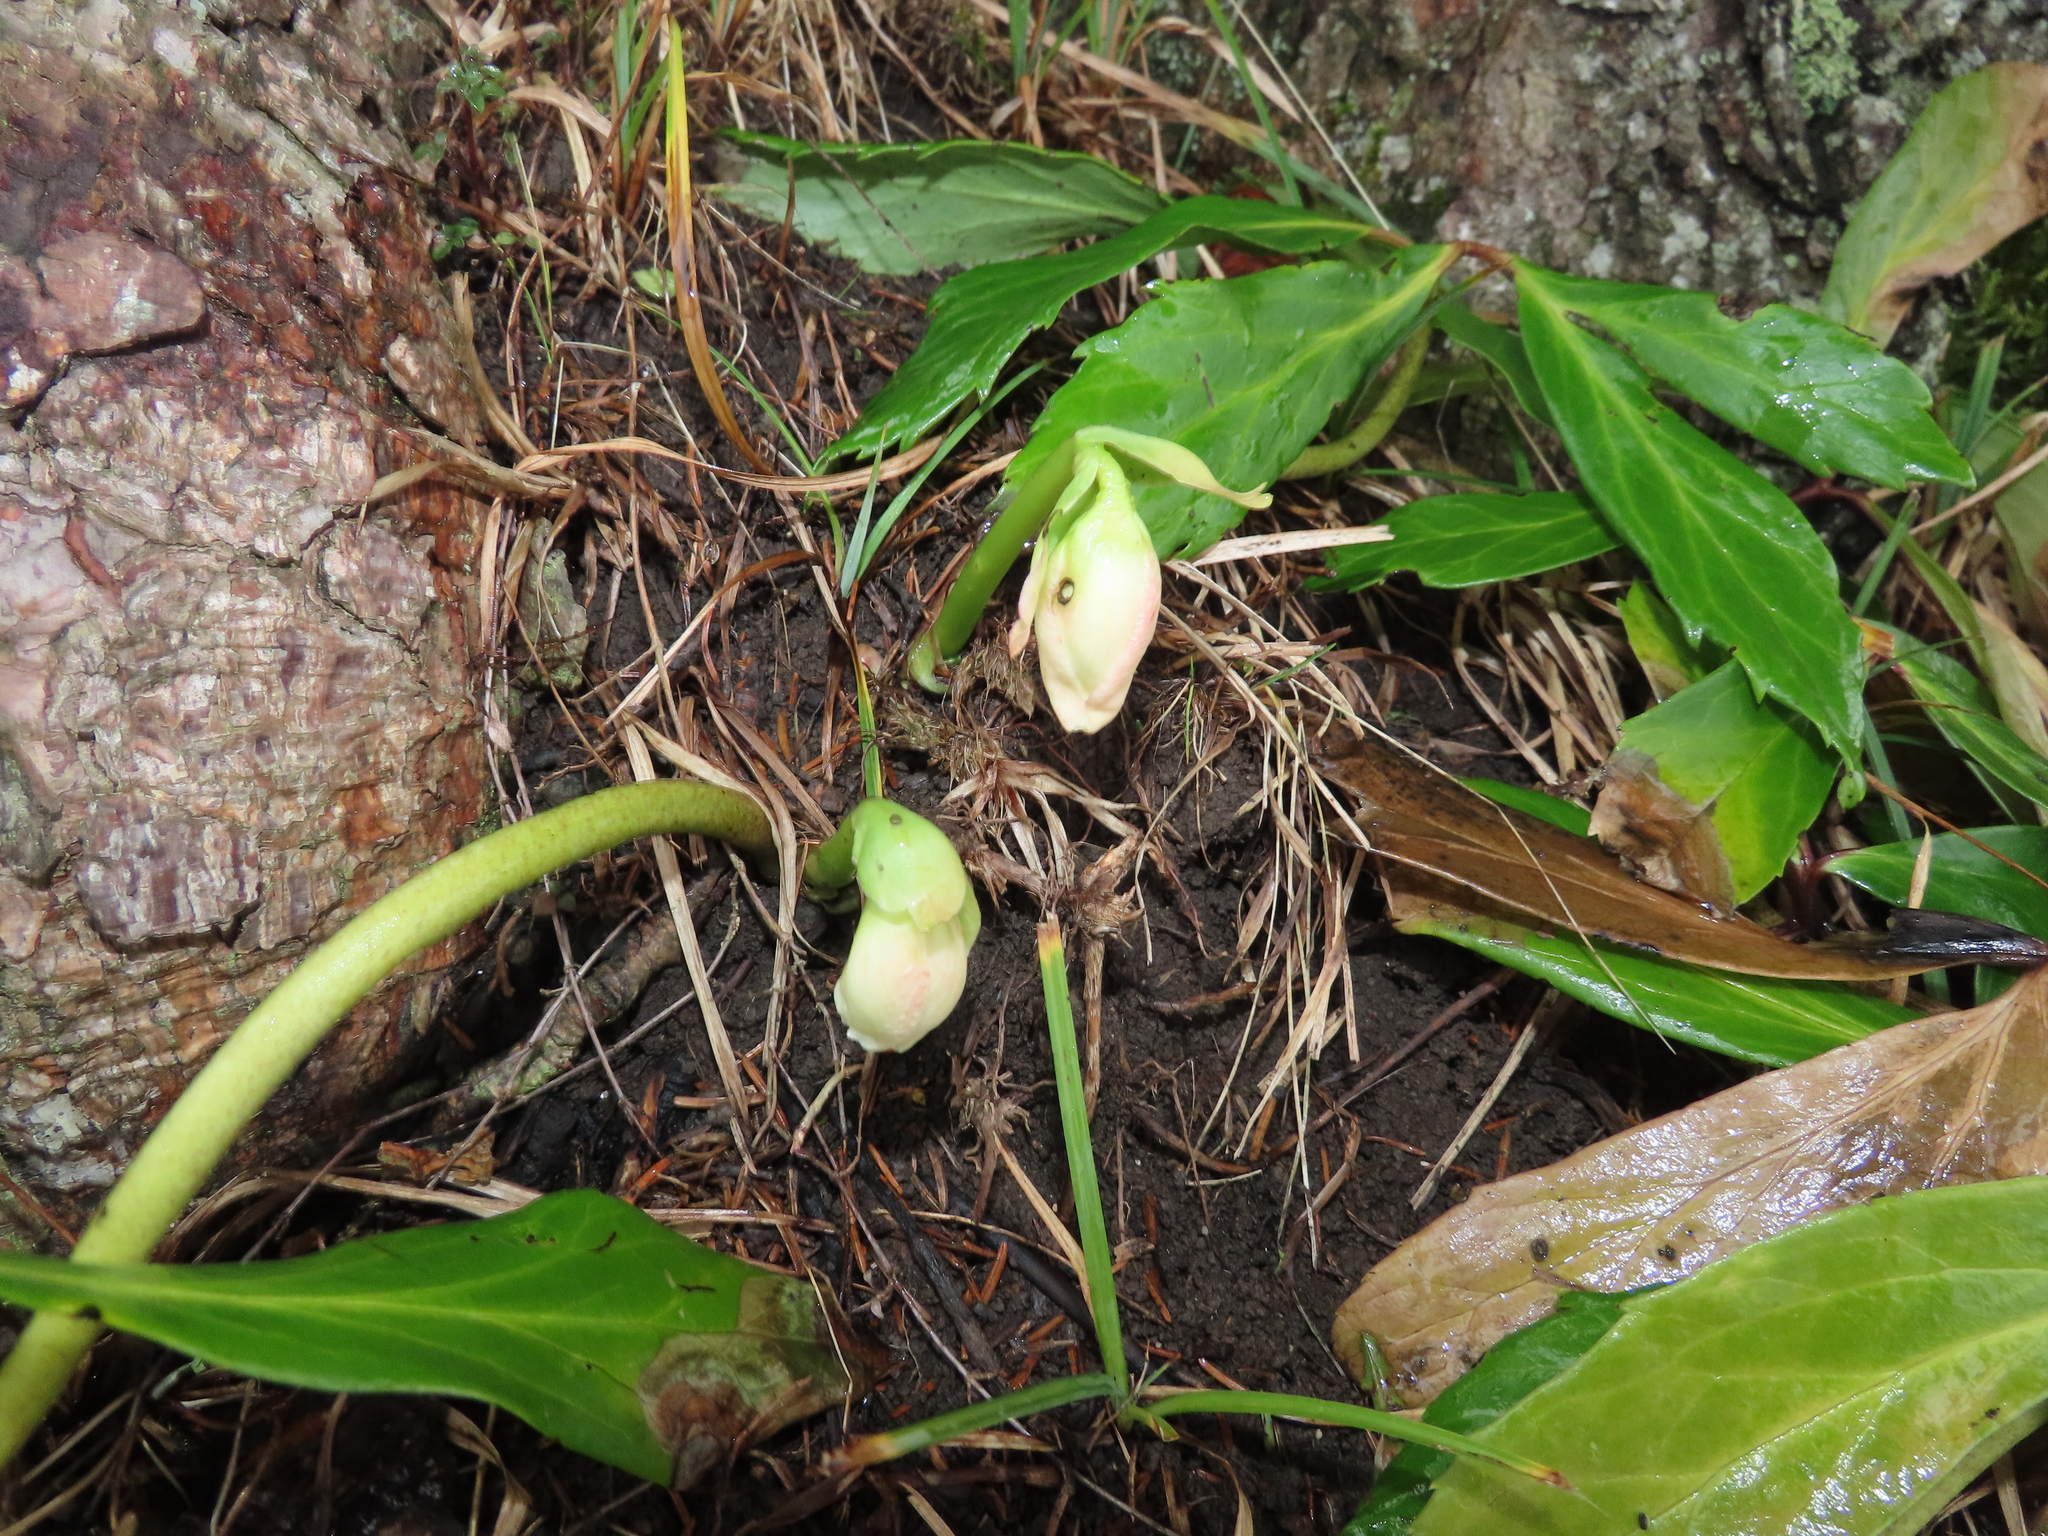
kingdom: Plantae
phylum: Tracheophyta
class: Magnoliopsida
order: Ranunculales
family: Ranunculaceae
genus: Helleborus
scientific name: Helleborus niger
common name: Black hellebore
